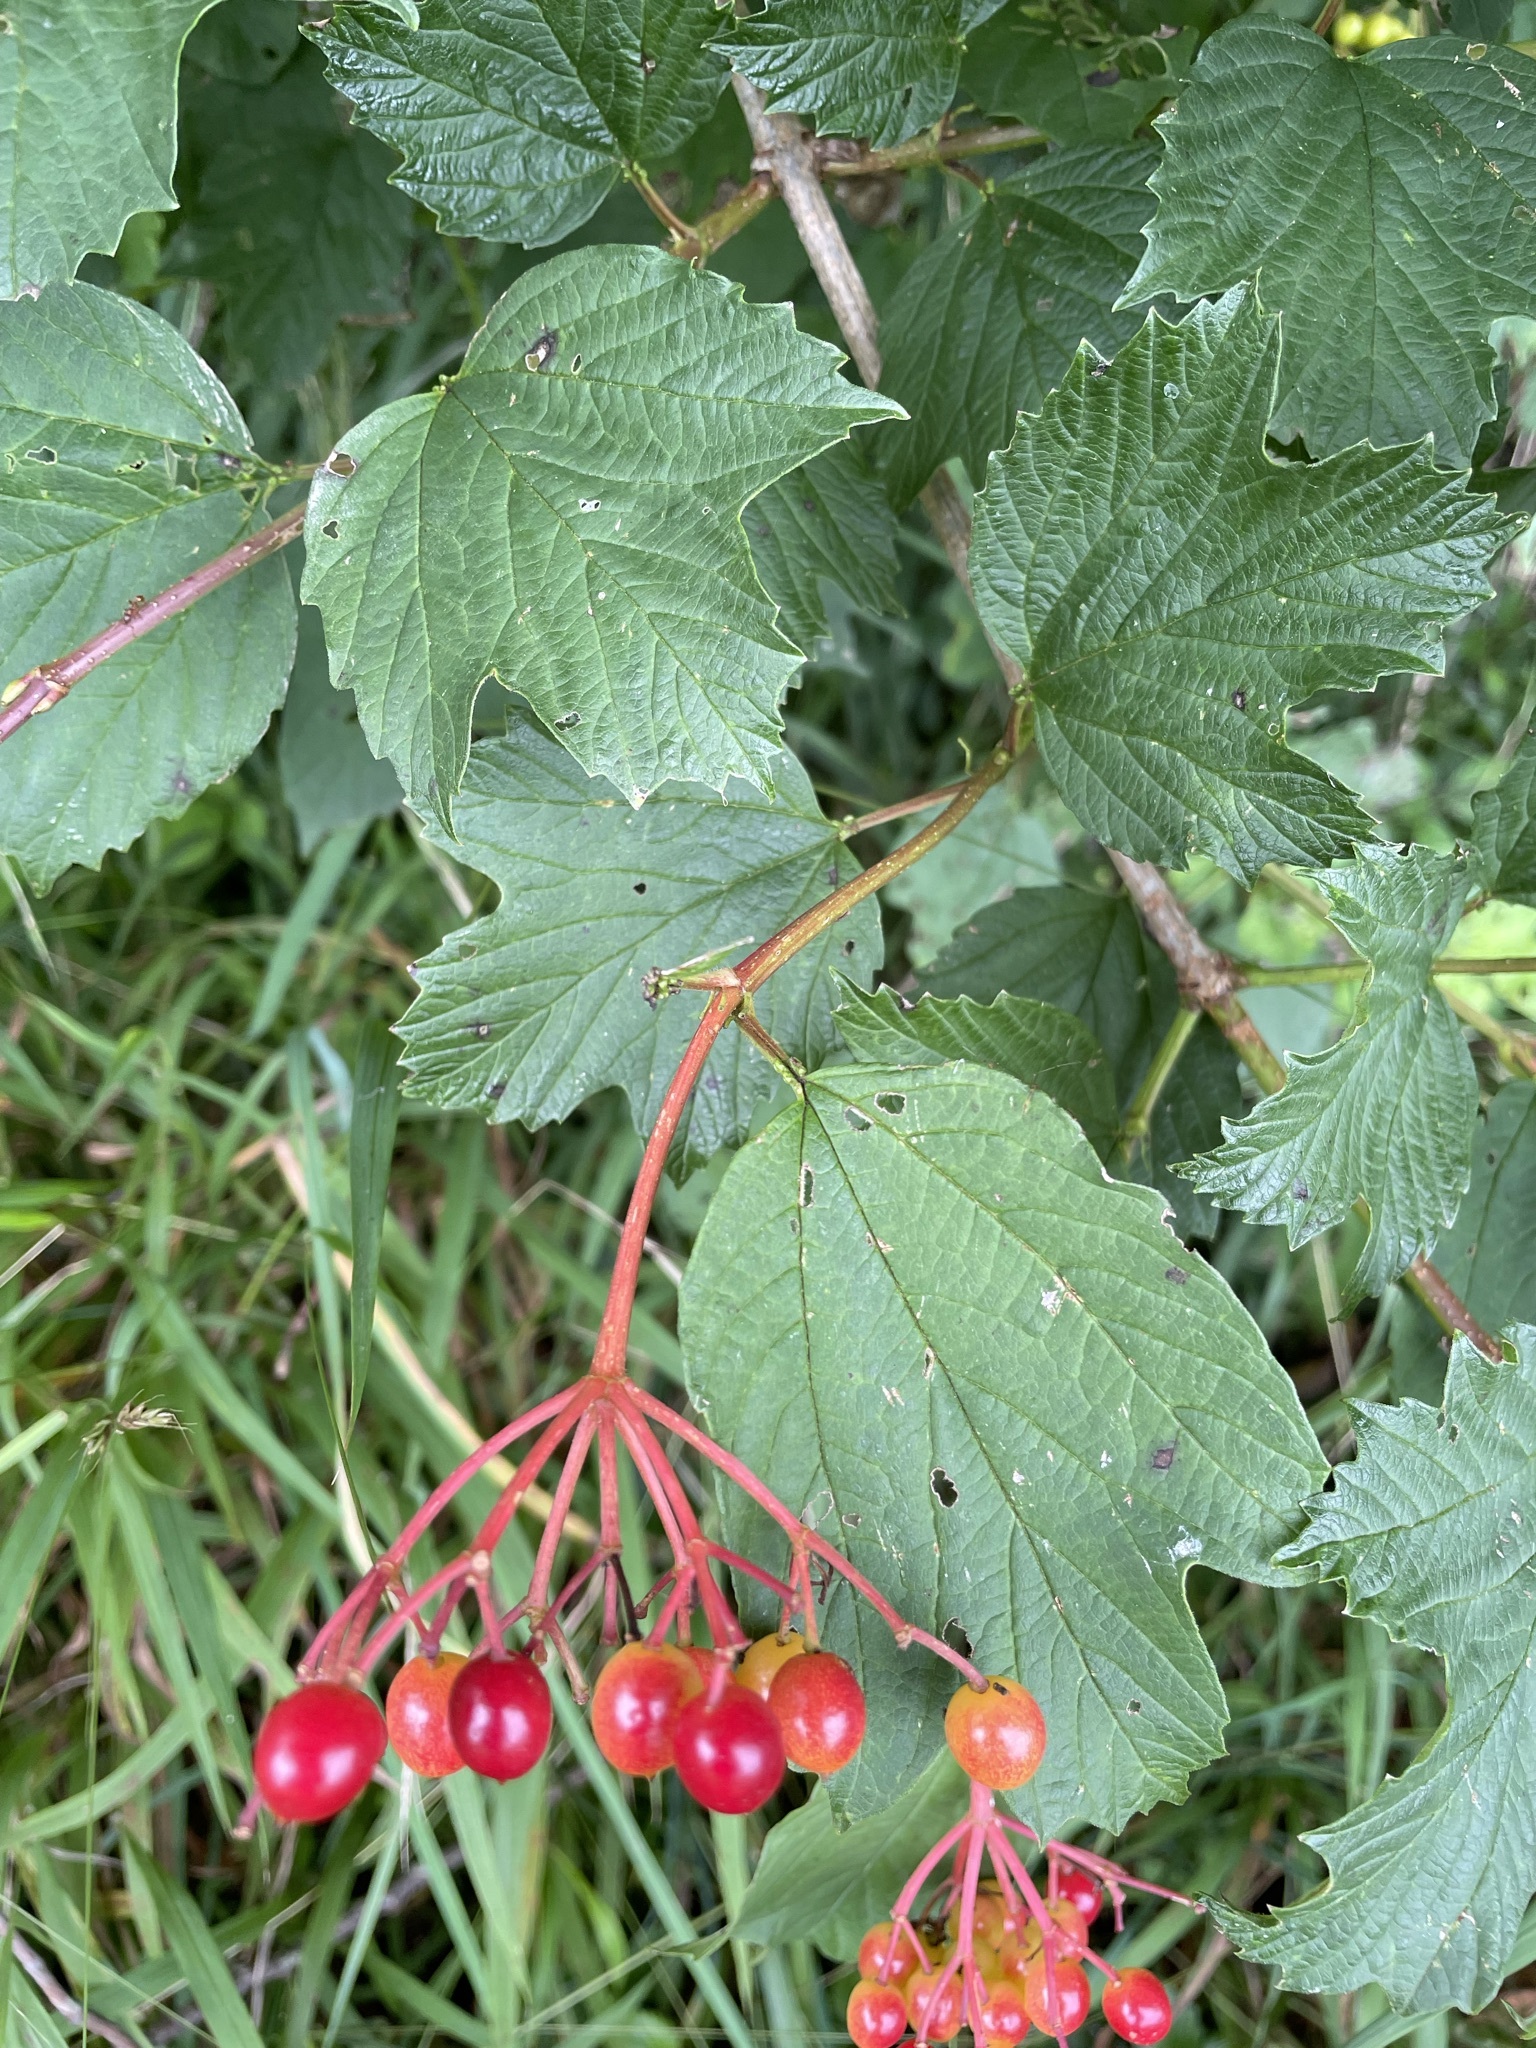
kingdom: Plantae
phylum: Tracheophyta
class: Magnoliopsida
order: Dipsacales
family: Viburnaceae
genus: Viburnum
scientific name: Viburnum opulus
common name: Guelder-rose
